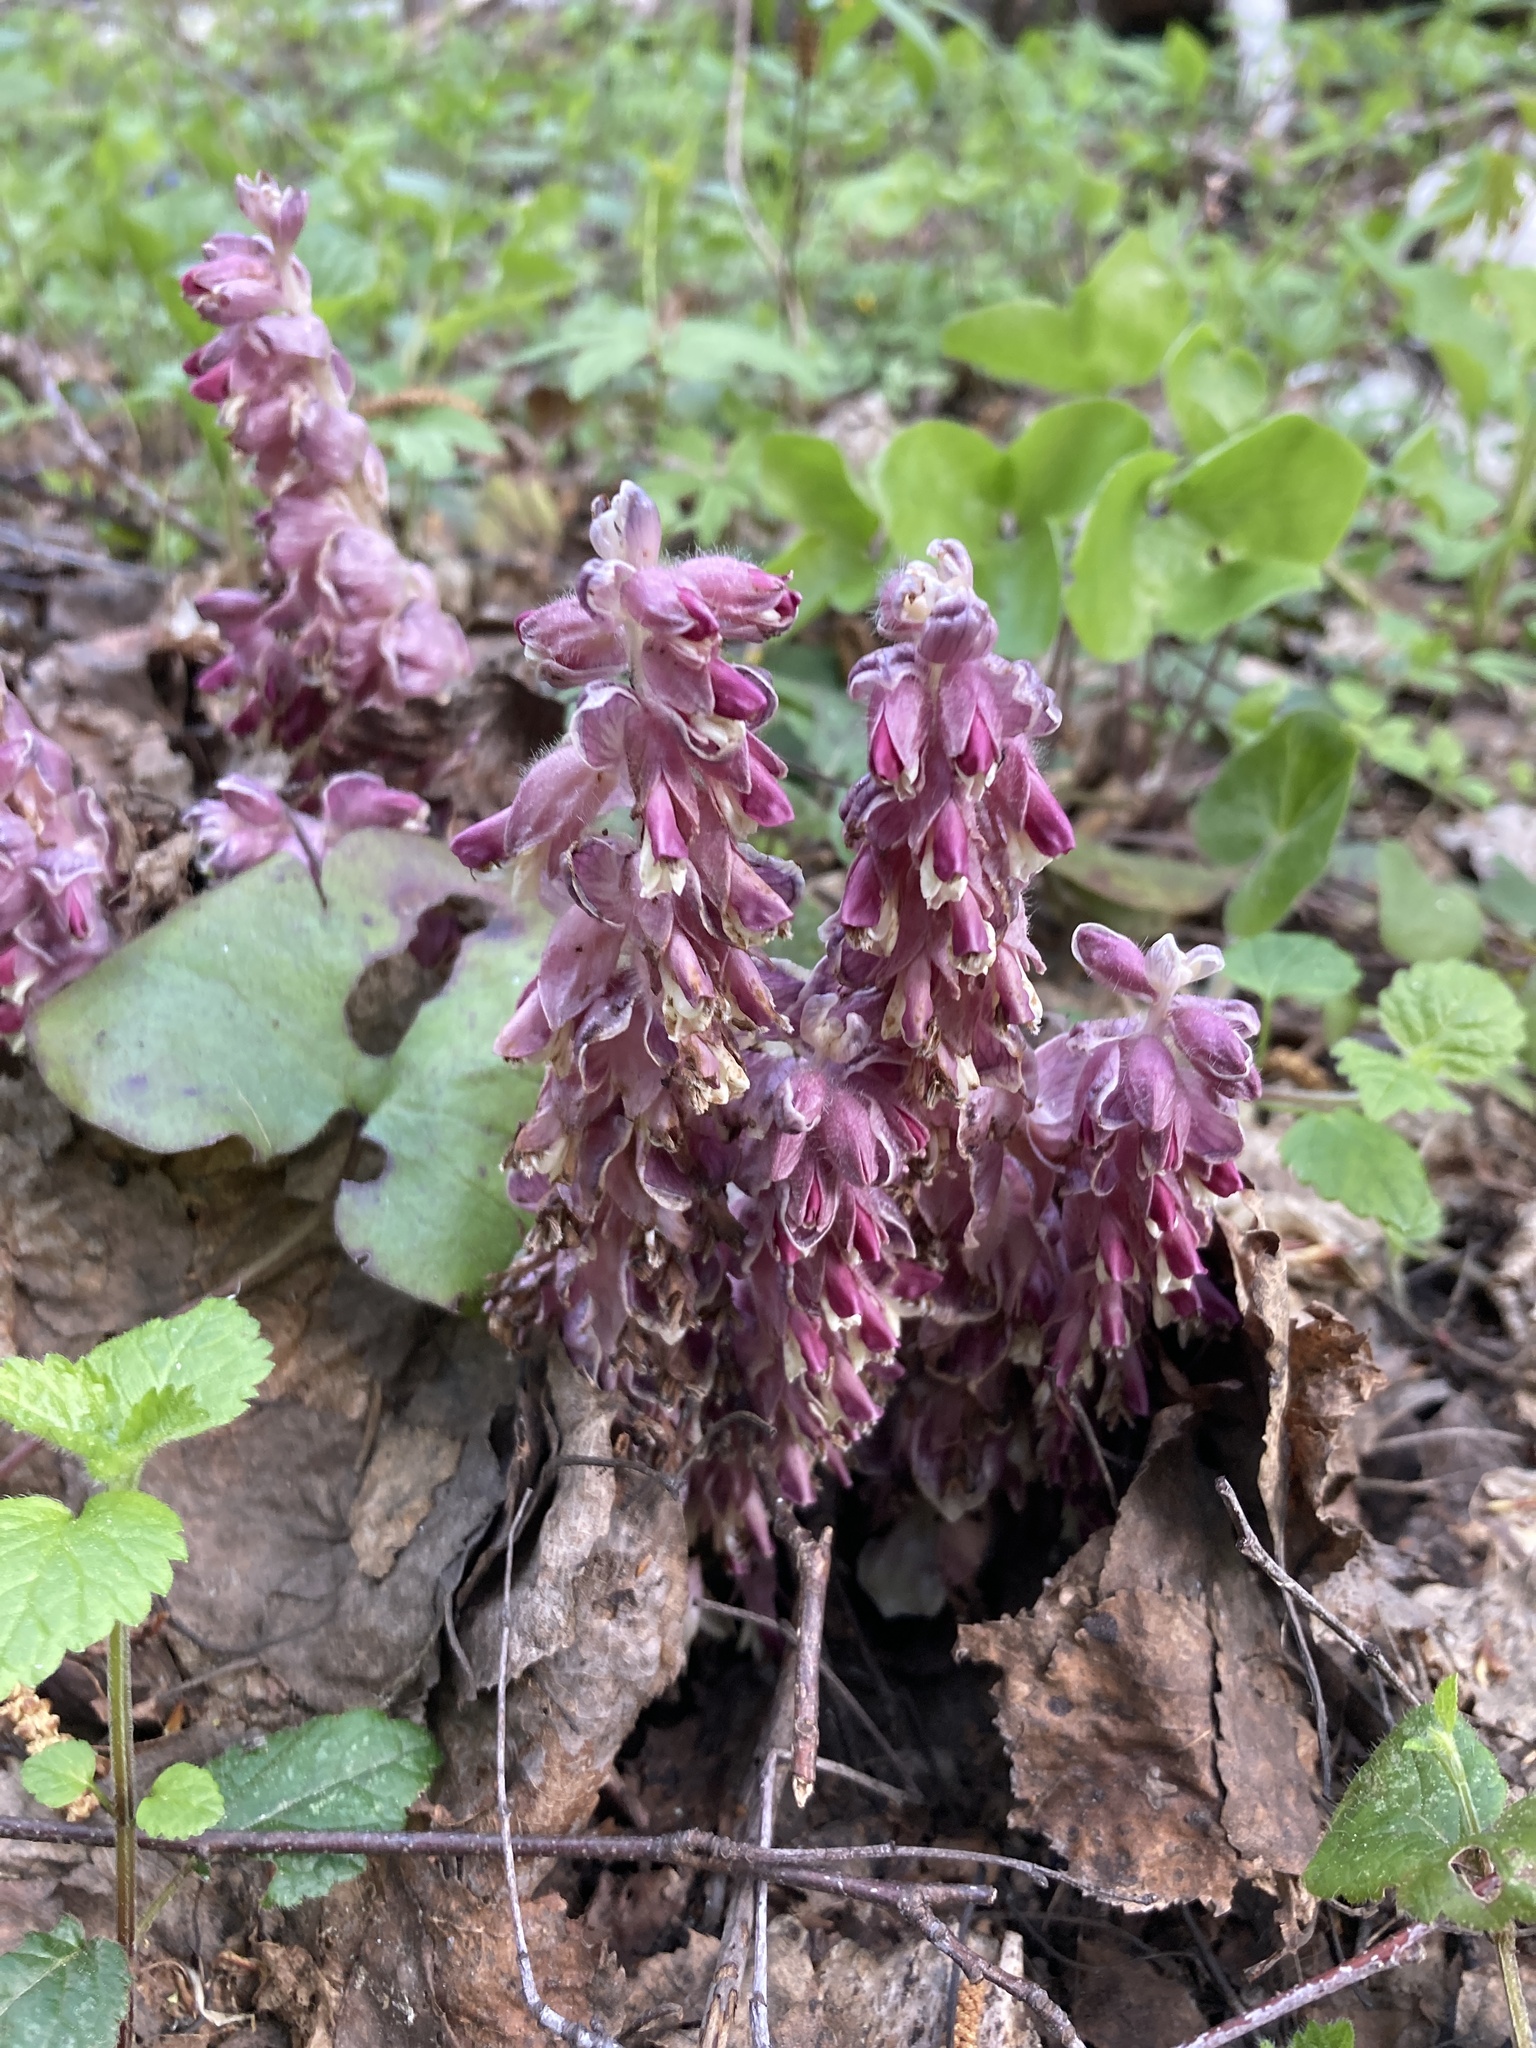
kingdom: Plantae
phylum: Tracheophyta
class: Magnoliopsida
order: Lamiales
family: Orobanchaceae
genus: Lathraea
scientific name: Lathraea squamaria
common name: Toothwort
